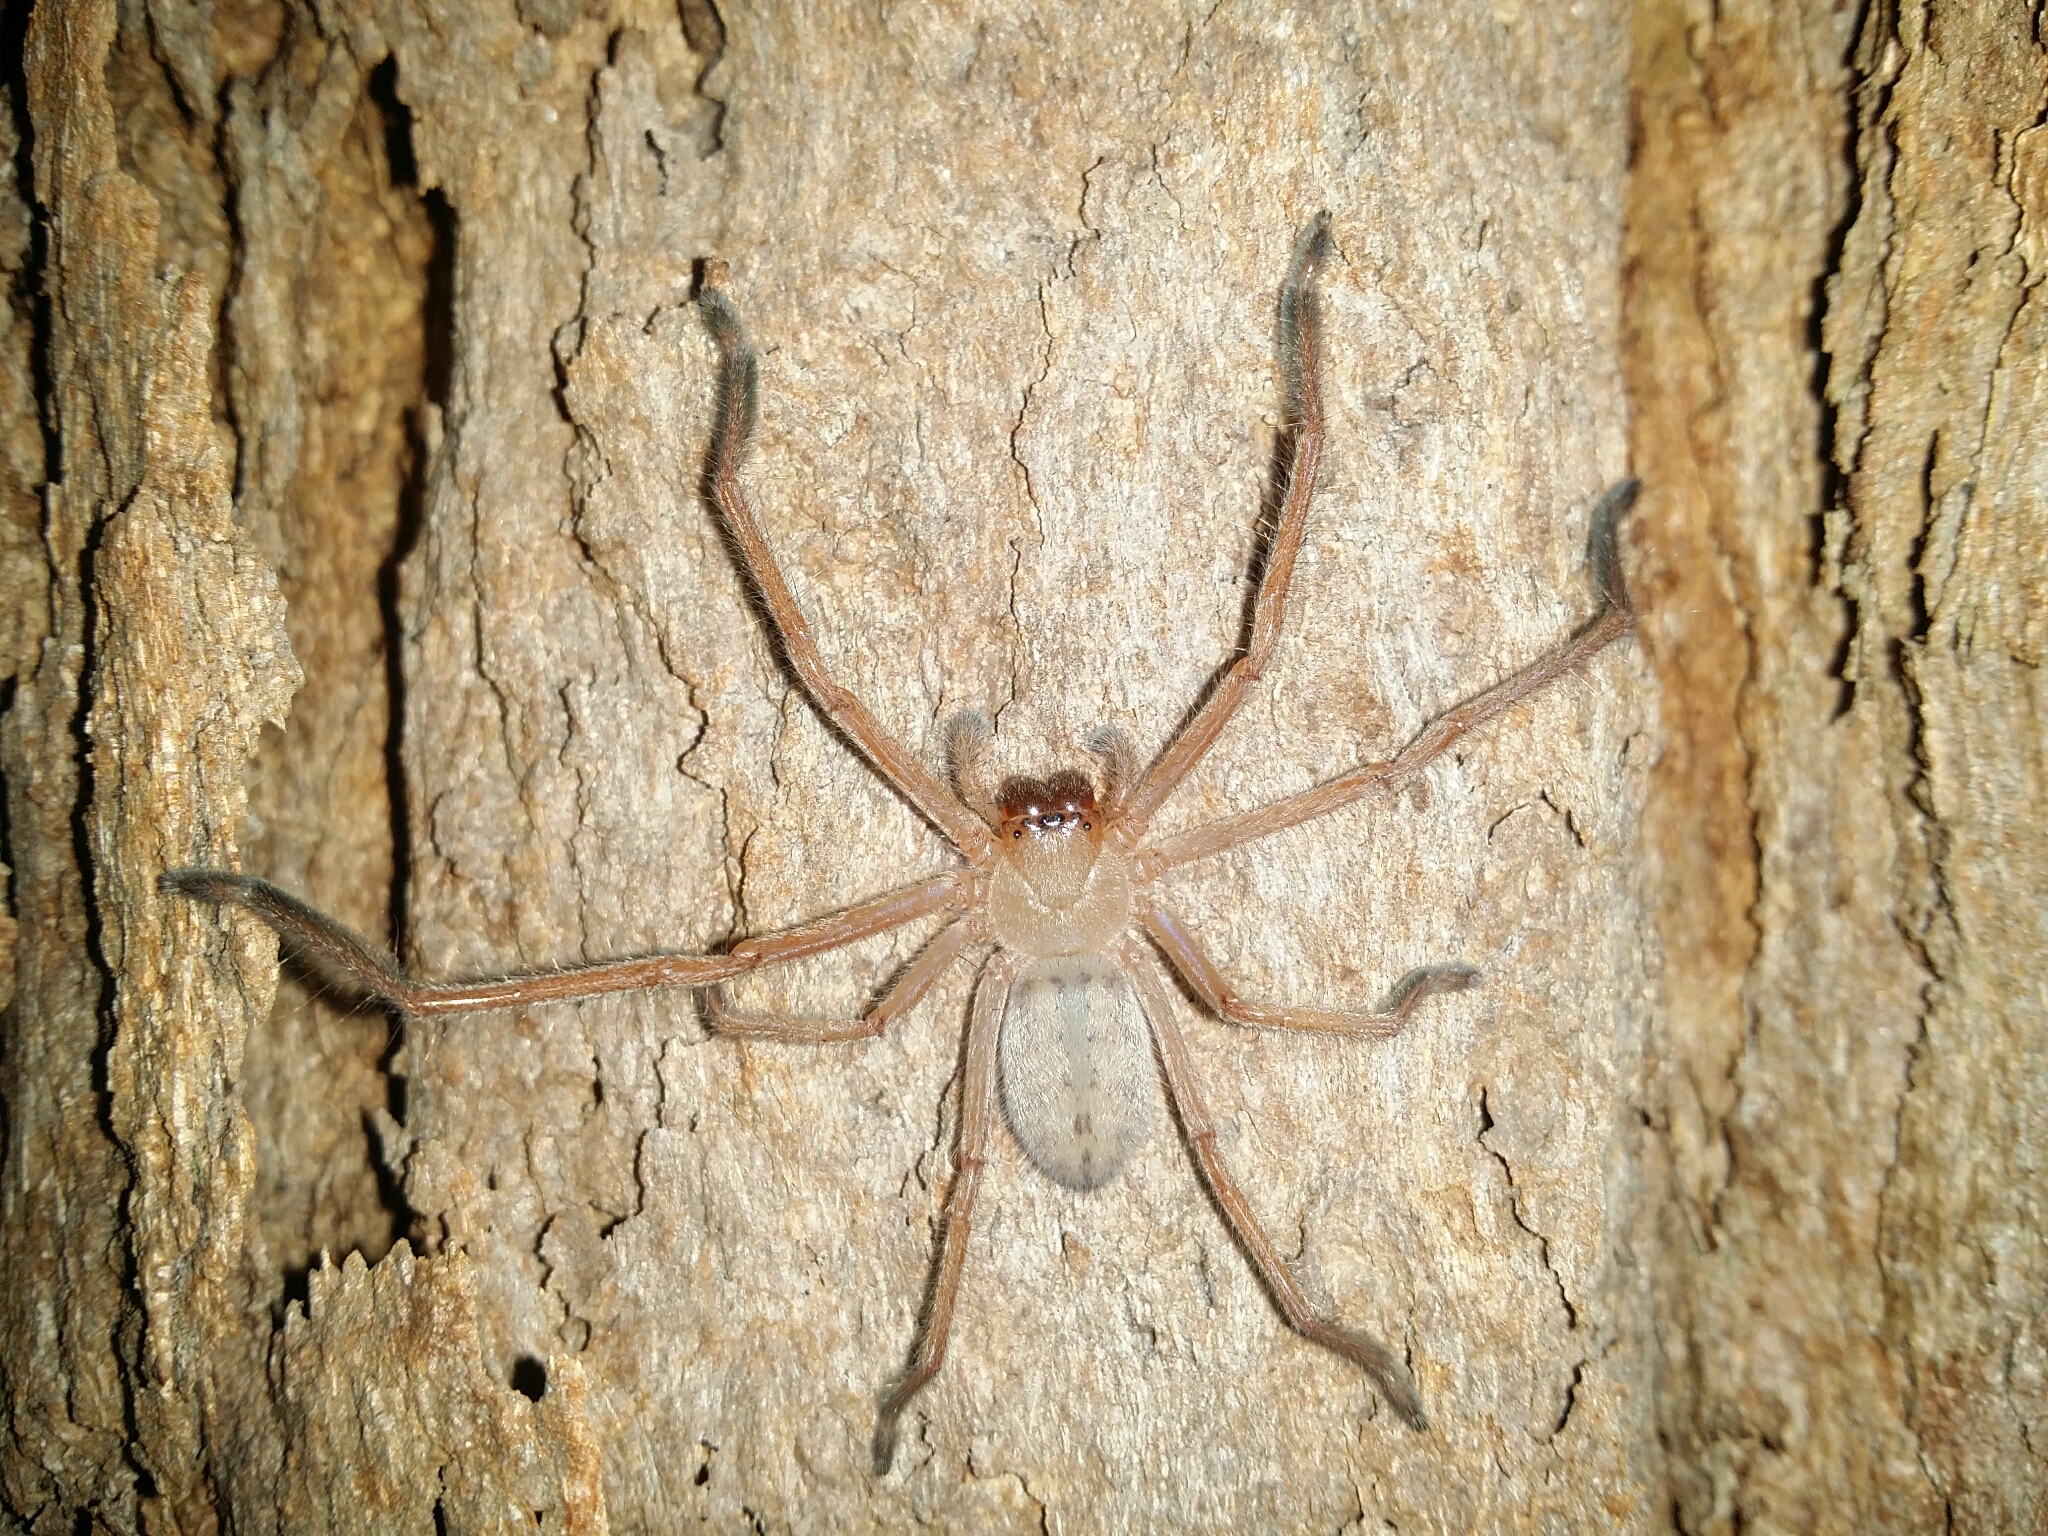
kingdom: Animalia
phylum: Arthropoda
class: Arachnida
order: Araneae
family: Sparassidae
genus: Delena
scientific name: Delena cancerides
